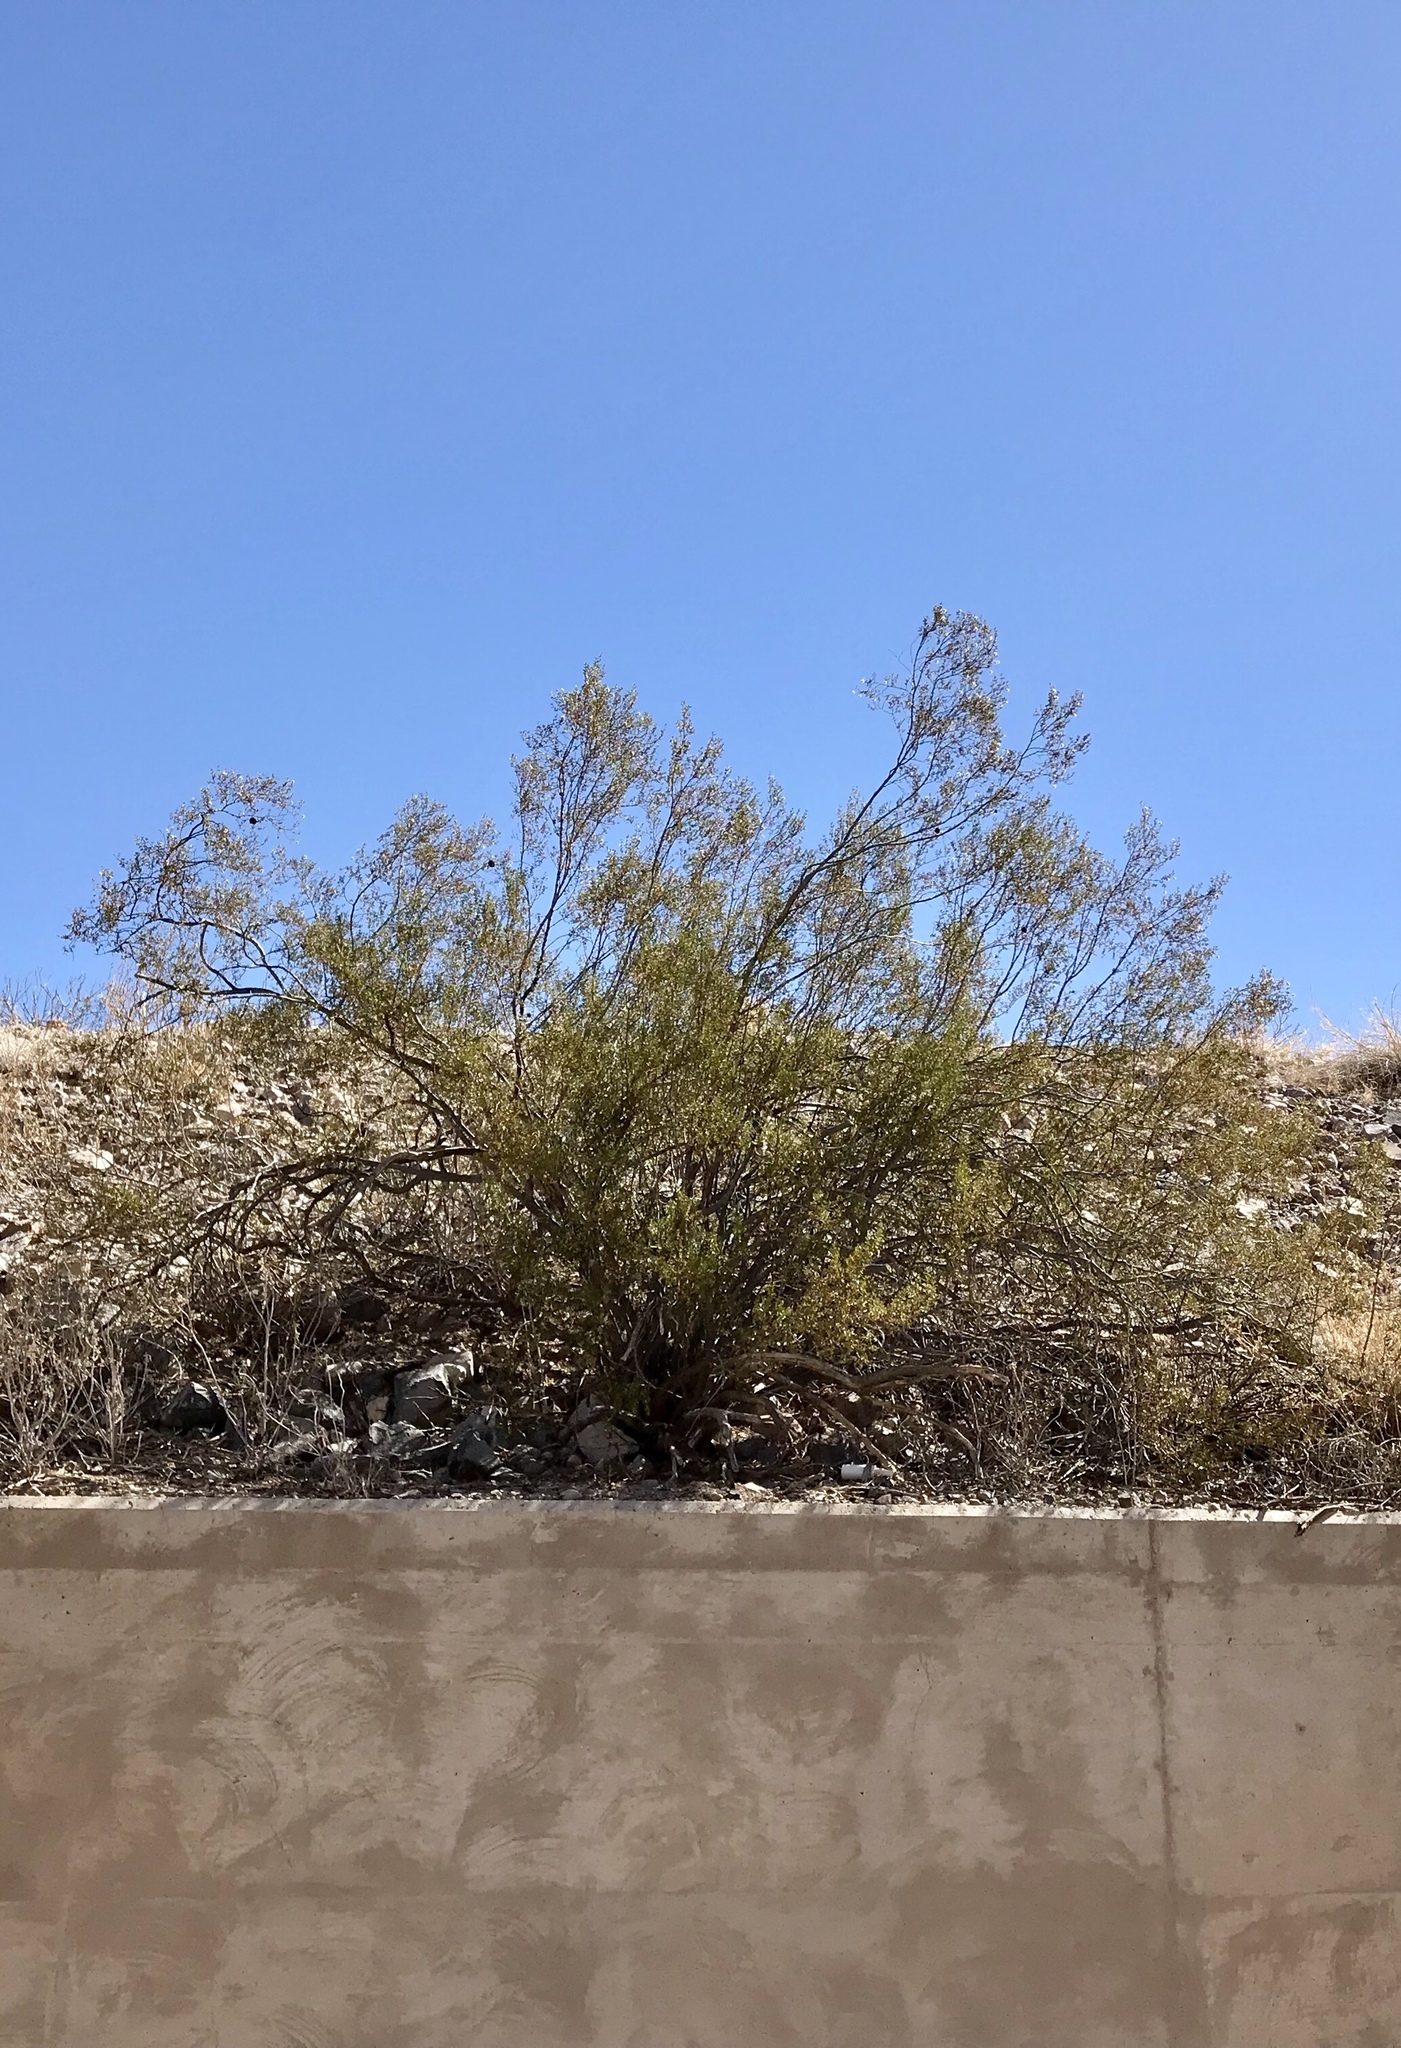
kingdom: Plantae
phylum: Tracheophyta
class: Magnoliopsida
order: Zygophyllales
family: Zygophyllaceae
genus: Larrea
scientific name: Larrea tridentata
